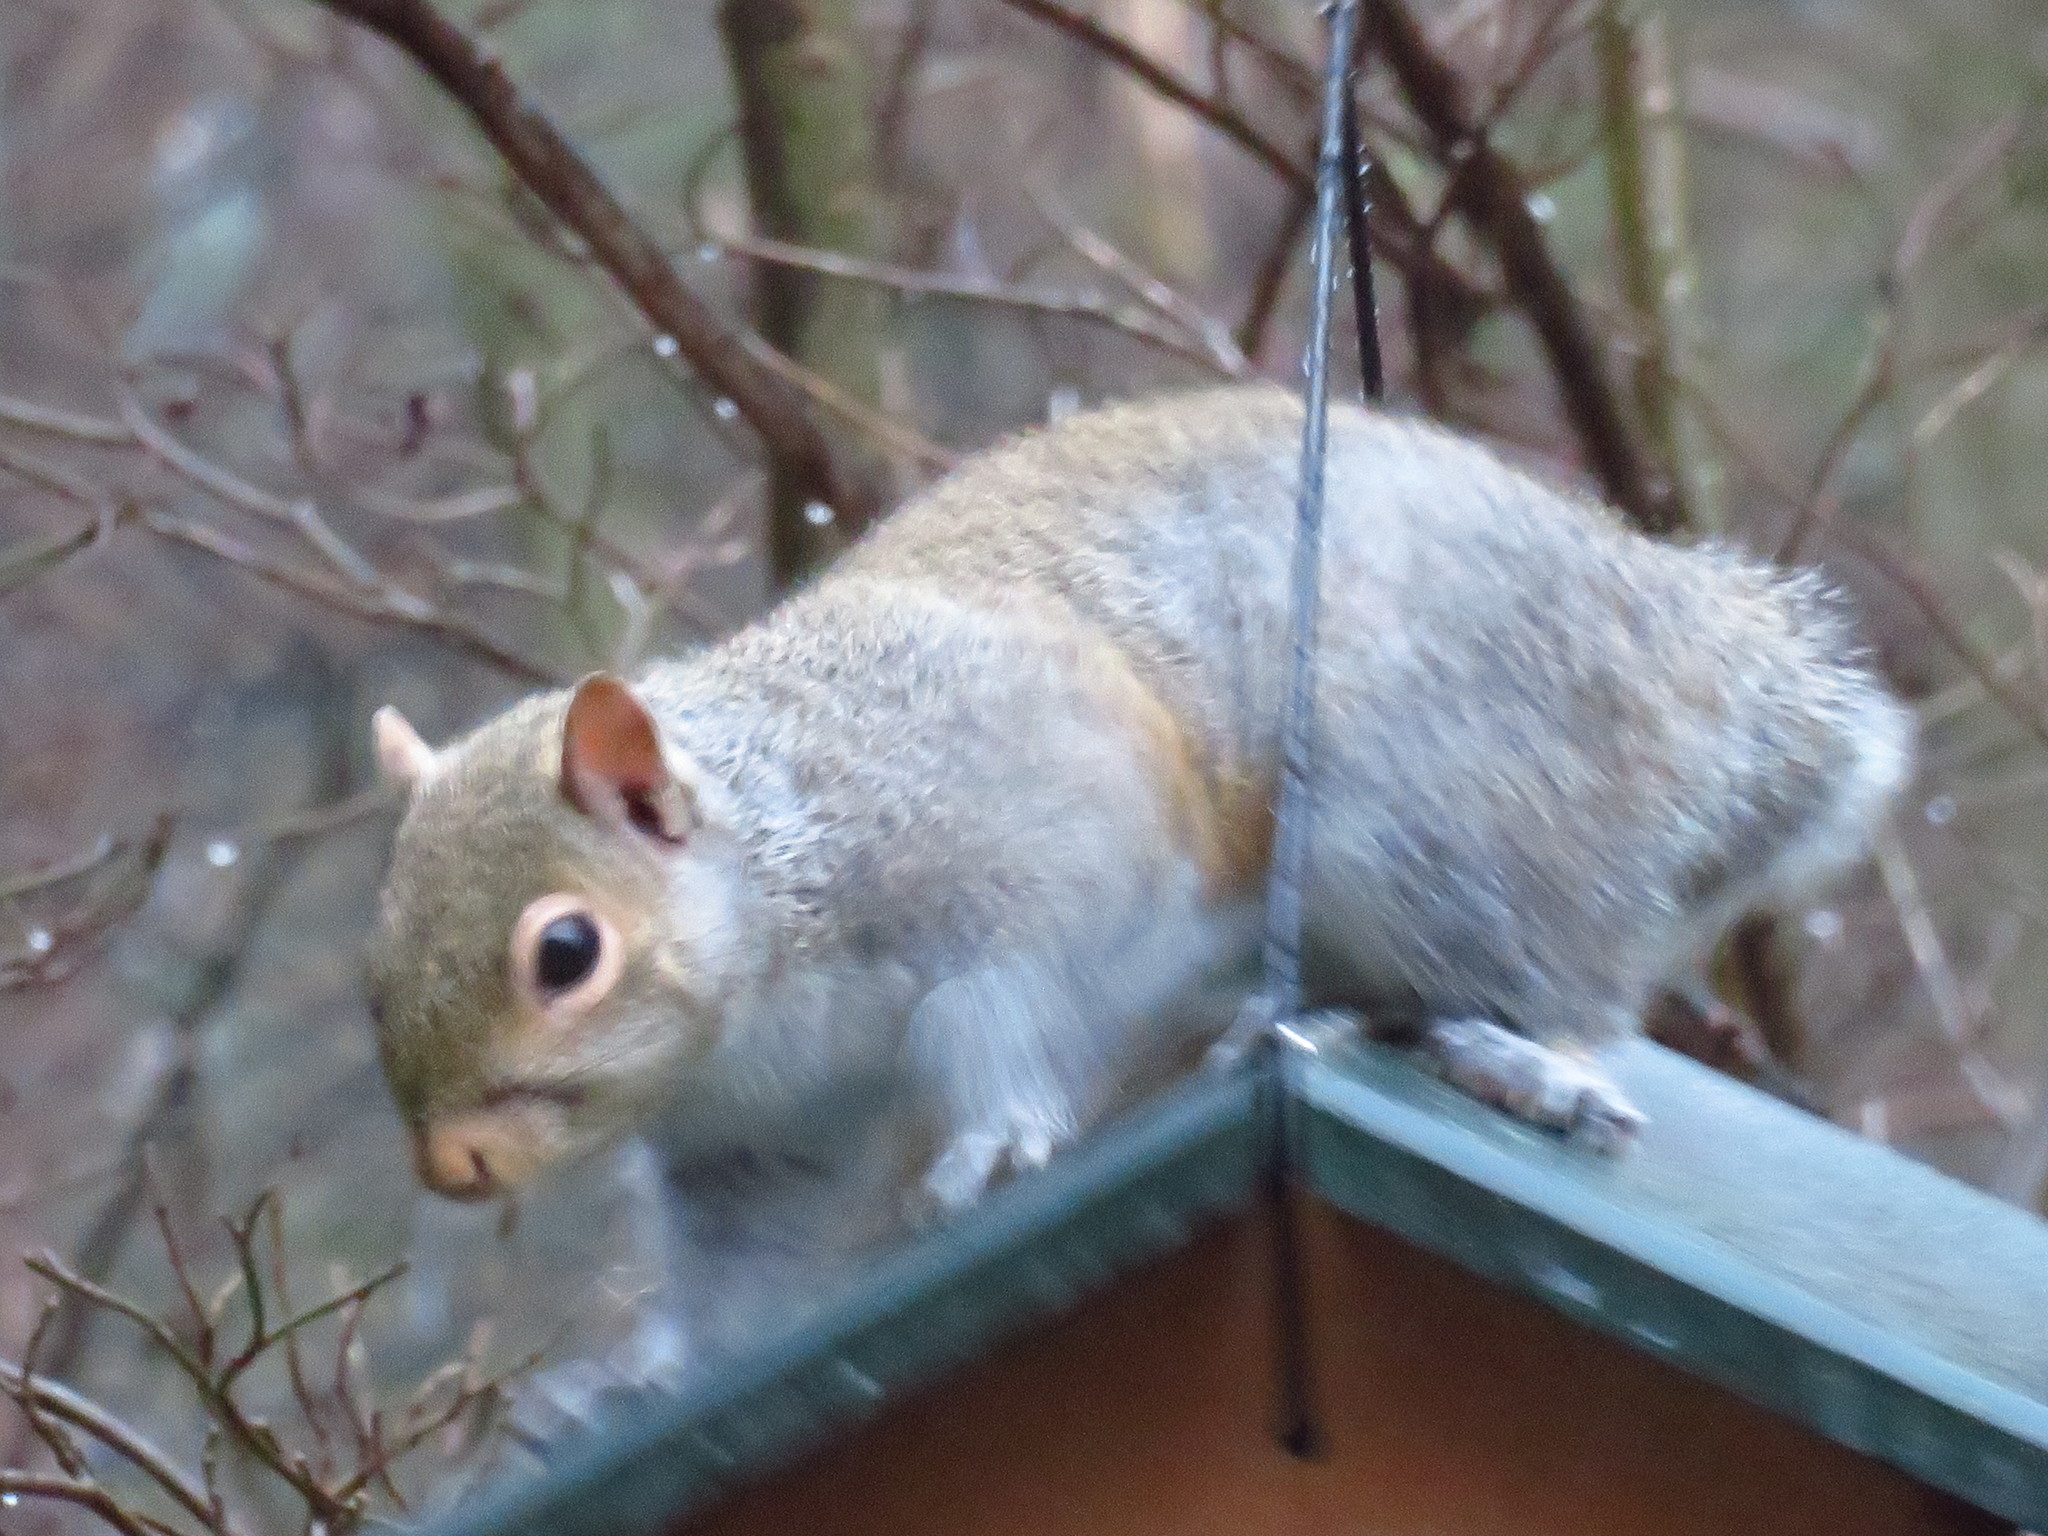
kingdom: Animalia
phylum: Chordata
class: Mammalia
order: Rodentia
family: Sciuridae
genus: Sciurus
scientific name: Sciurus carolinensis
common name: Eastern gray squirrel
